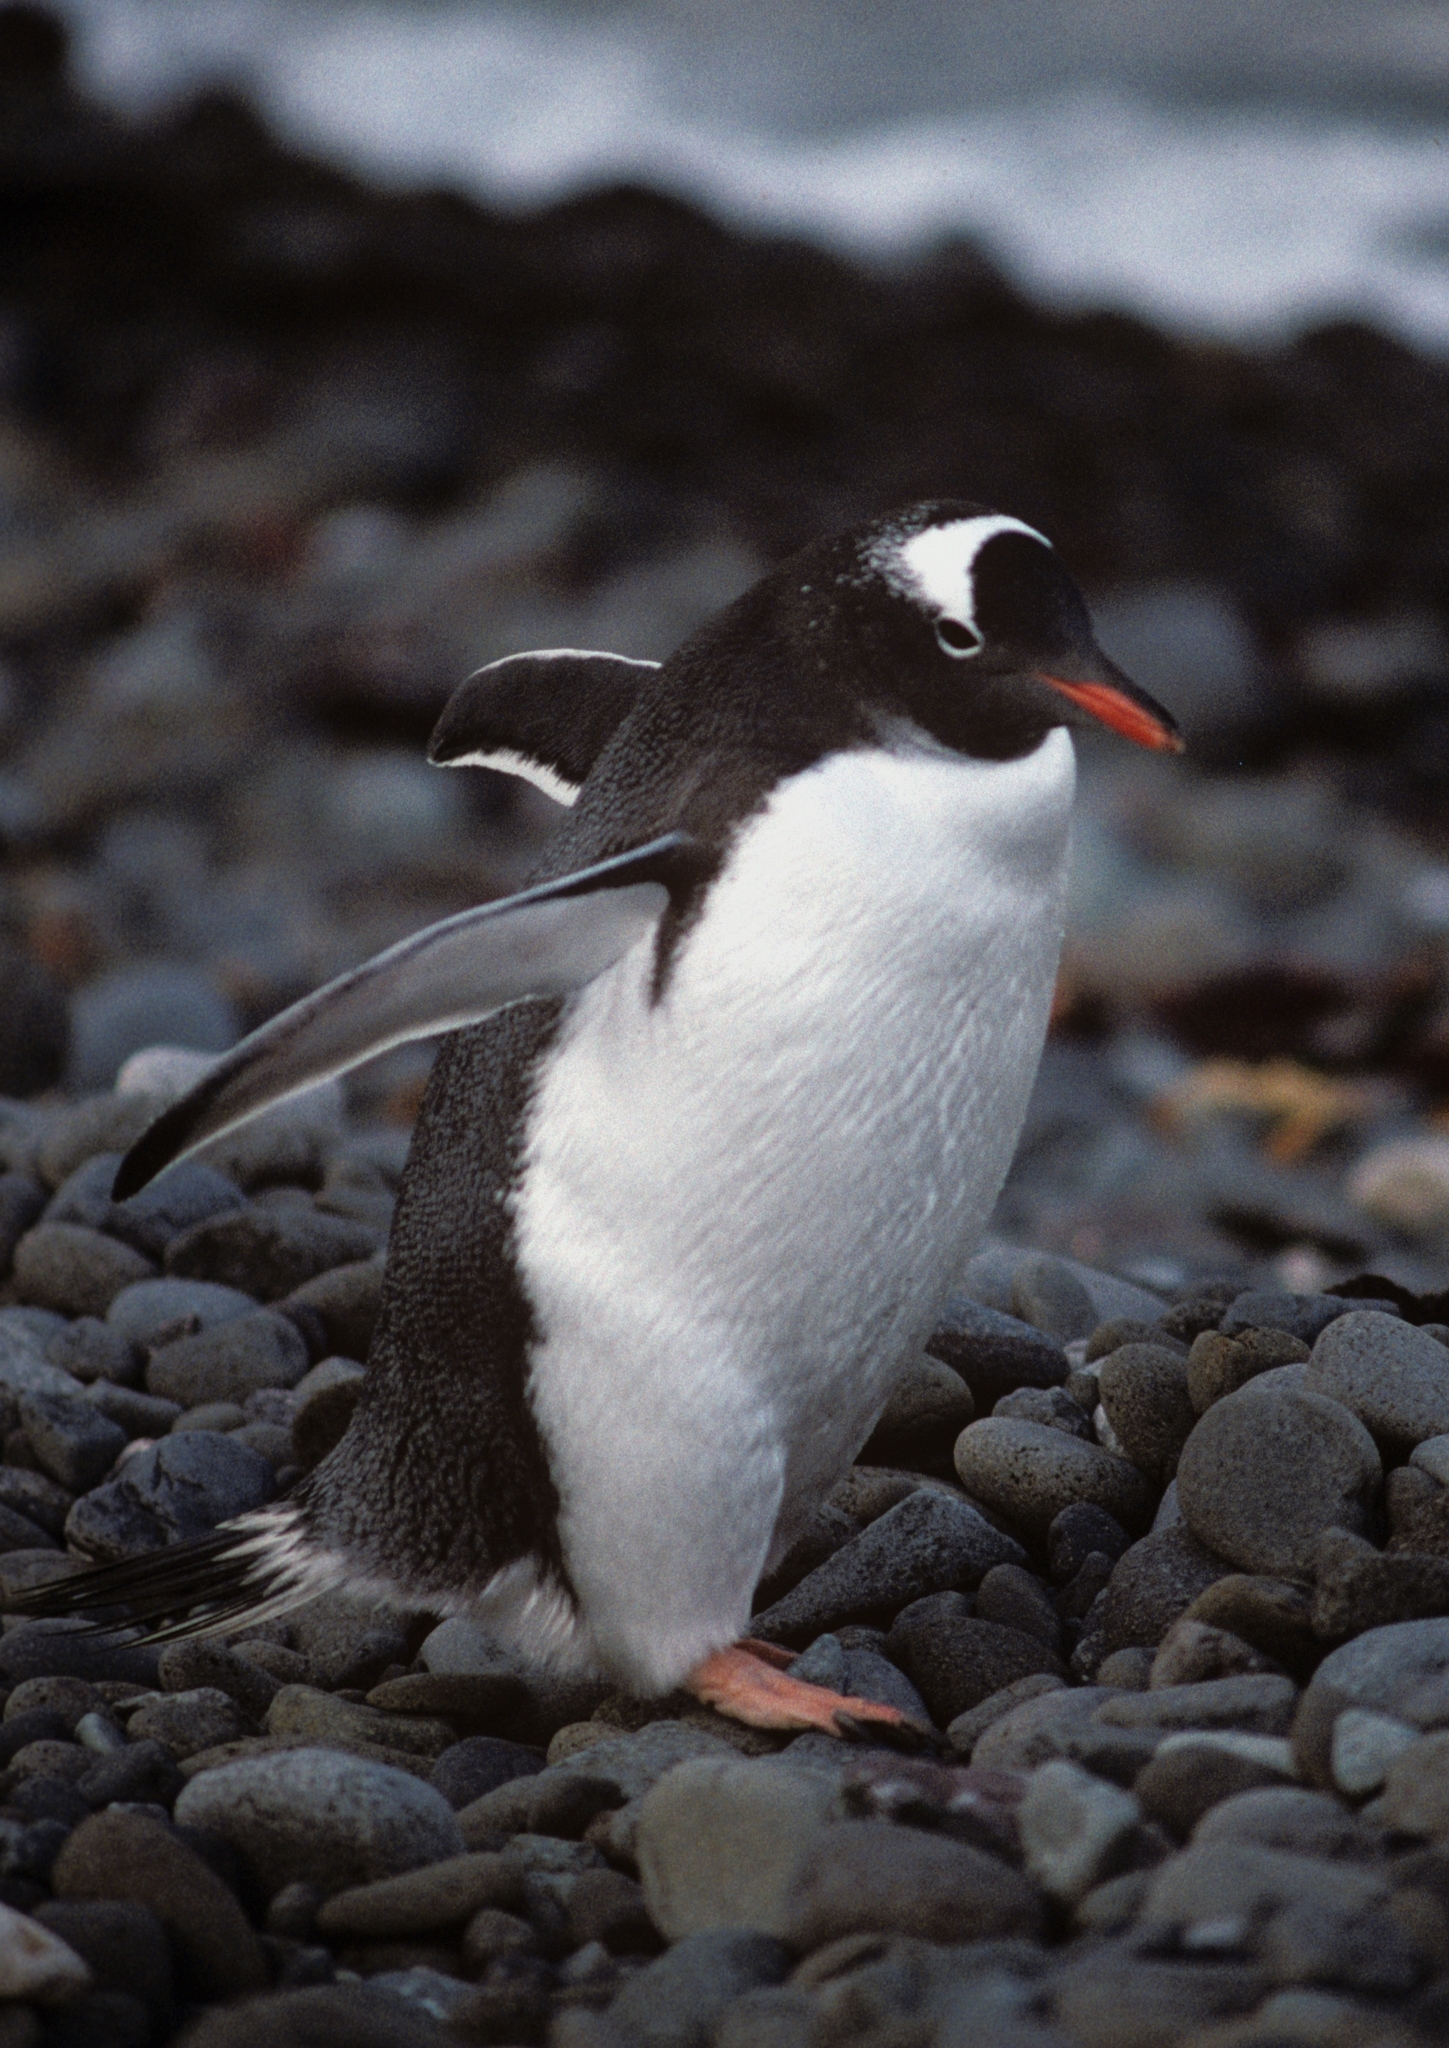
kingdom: Animalia
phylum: Chordata
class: Aves
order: Sphenisciformes
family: Spheniscidae
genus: Pygoscelis
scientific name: Pygoscelis papua
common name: Gentoo penguin
